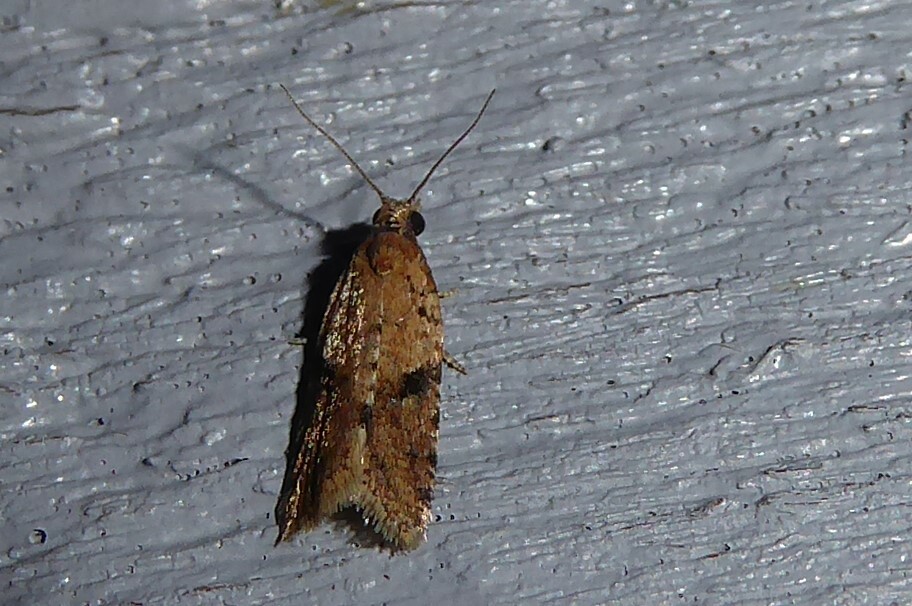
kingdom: Animalia
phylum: Arthropoda
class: Insecta
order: Lepidoptera
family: Tortricidae
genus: Capua
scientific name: Capua semiferana
